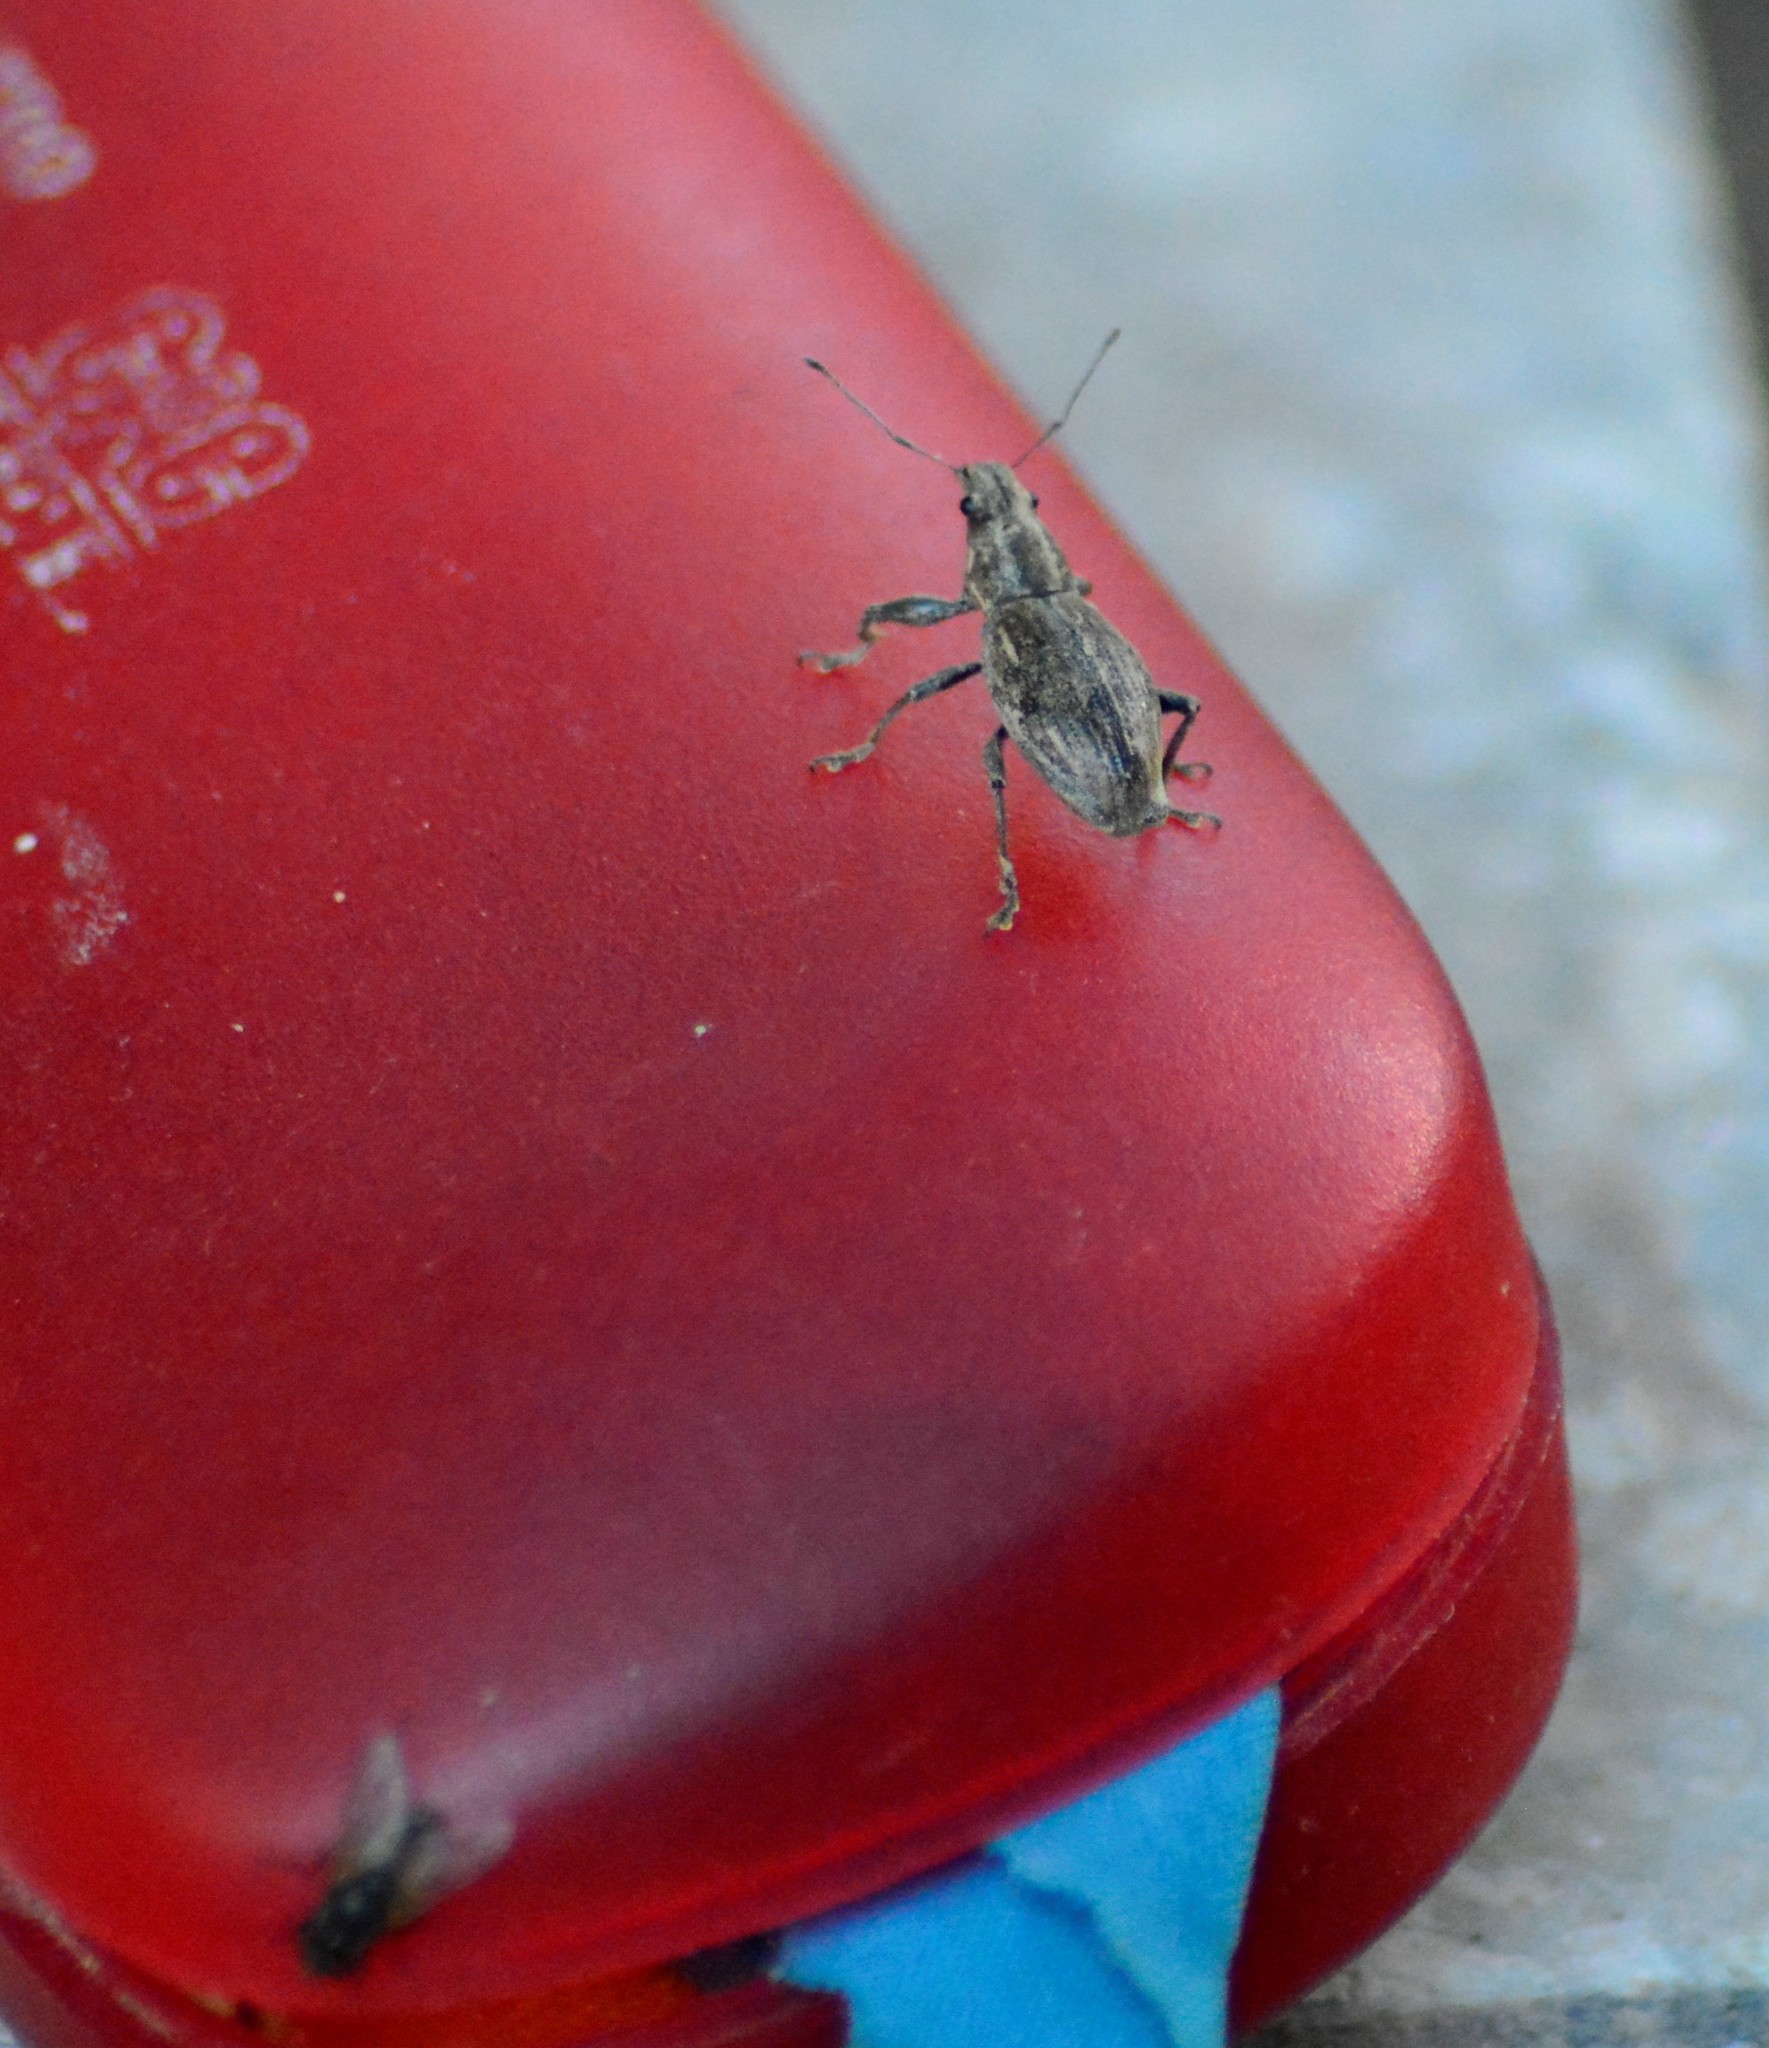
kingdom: Animalia
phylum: Arthropoda
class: Insecta
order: Coleoptera
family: Curculionidae
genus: Naupactus
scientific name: Naupactus xanthographus
